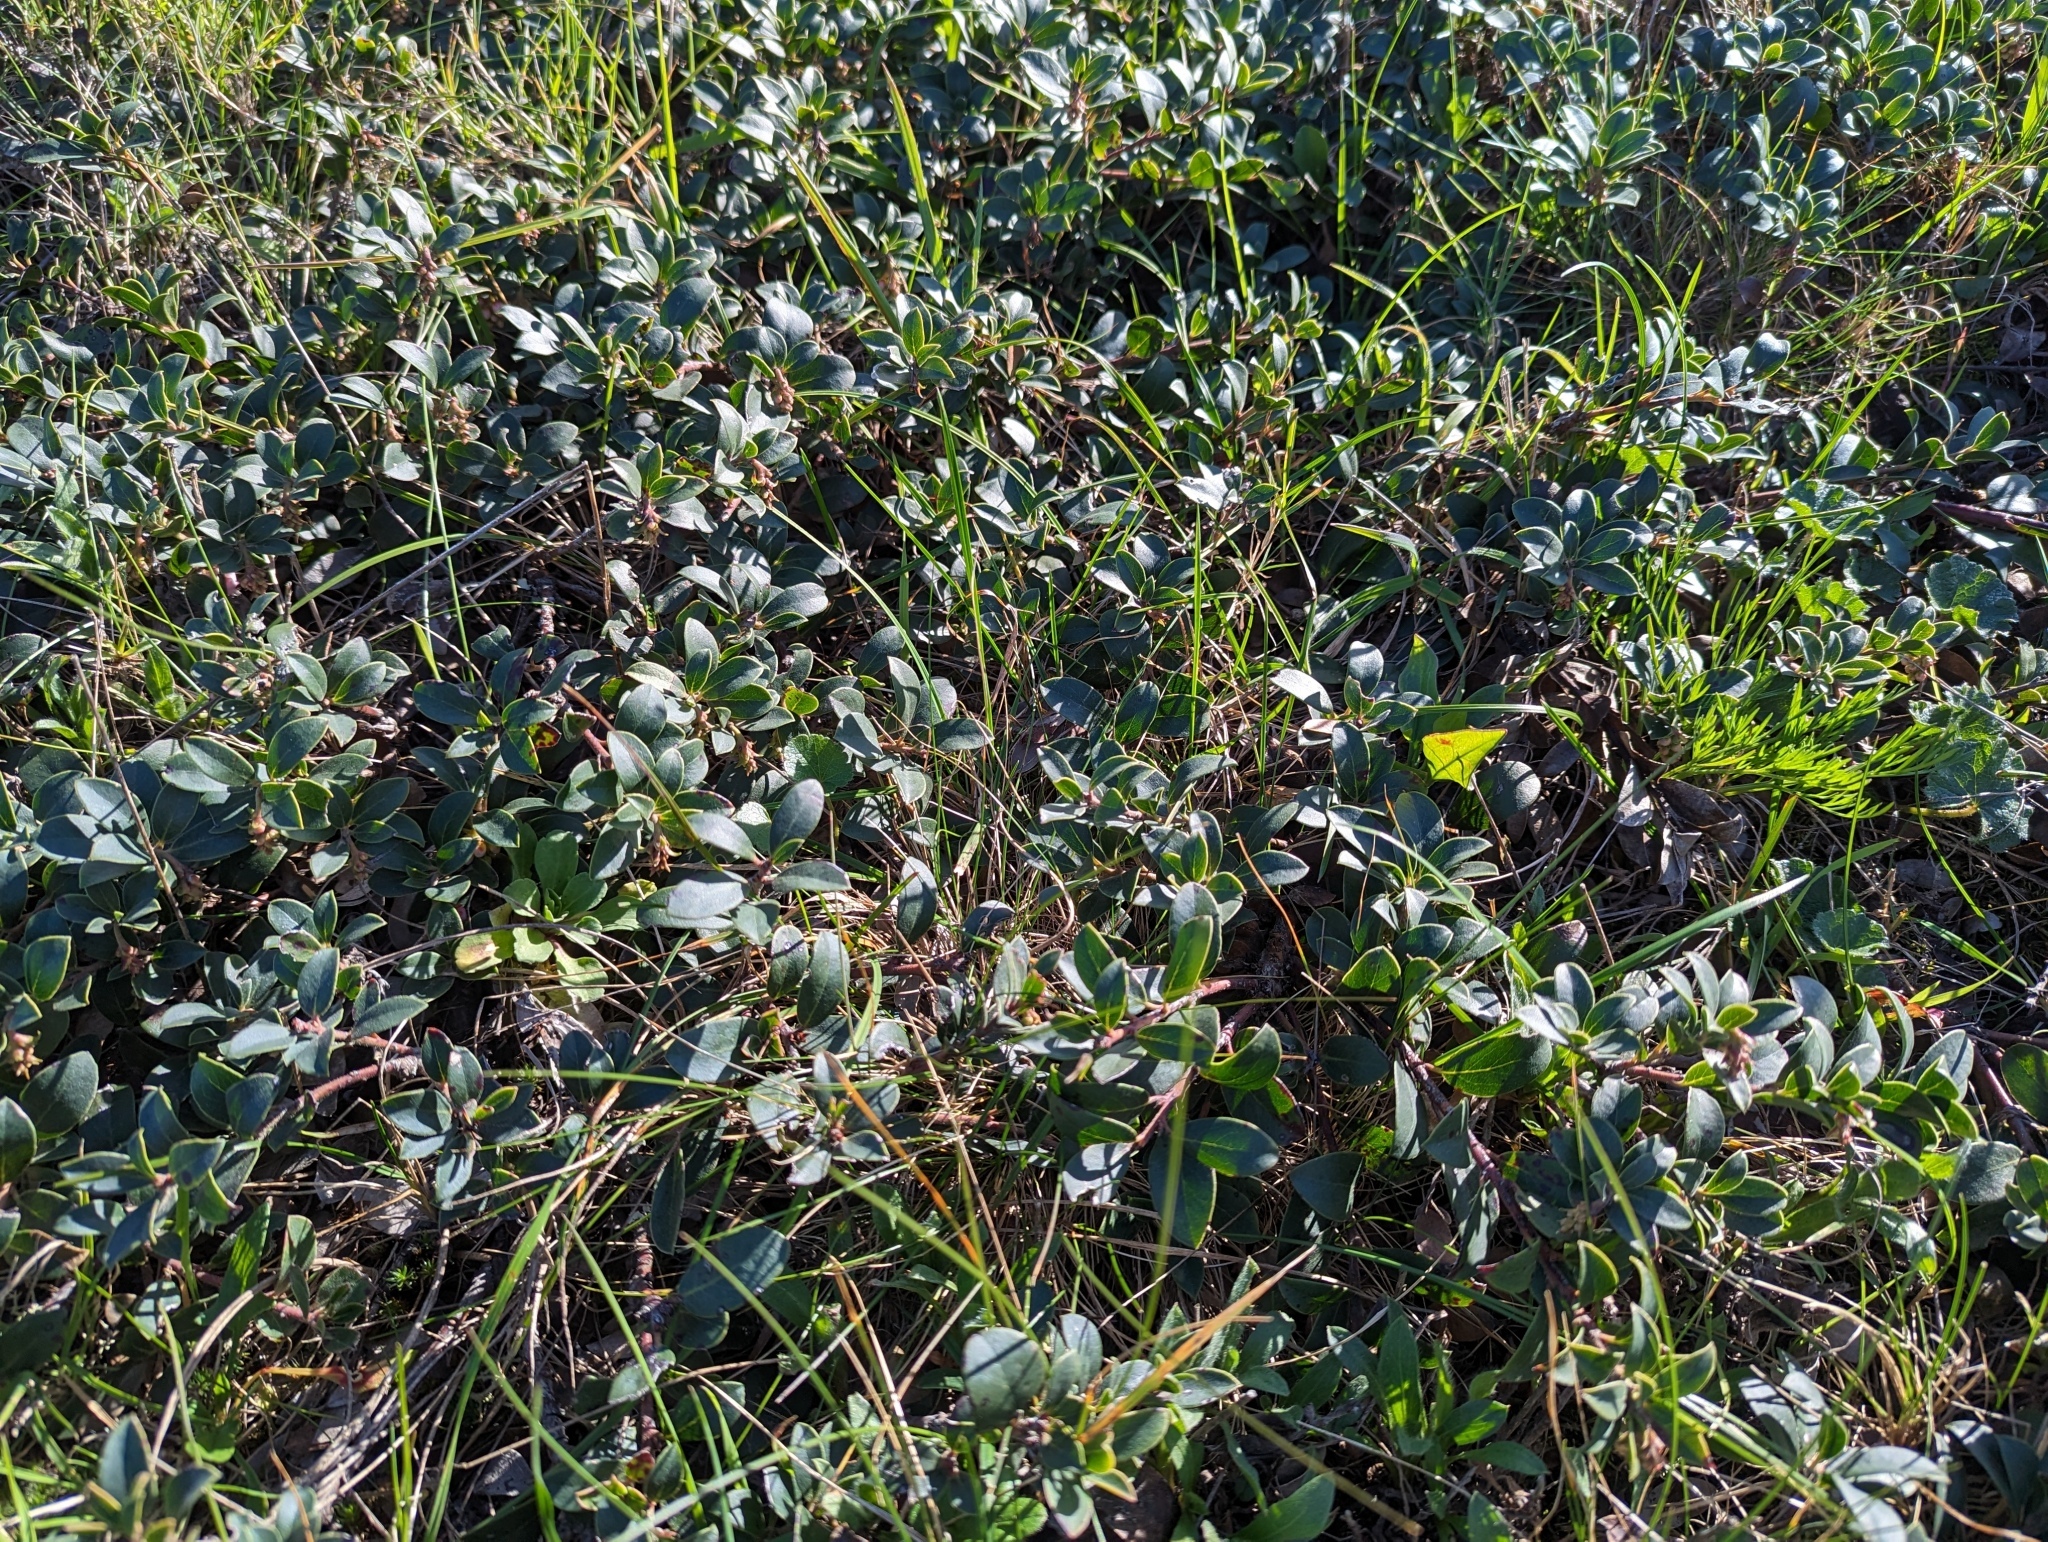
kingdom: Plantae
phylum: Tracheophyta
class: Magnoliopsida
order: Ericales
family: Ericaceae
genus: Arctostaphylos
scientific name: Arctostaphylos uva-ursi
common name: Bearberry
